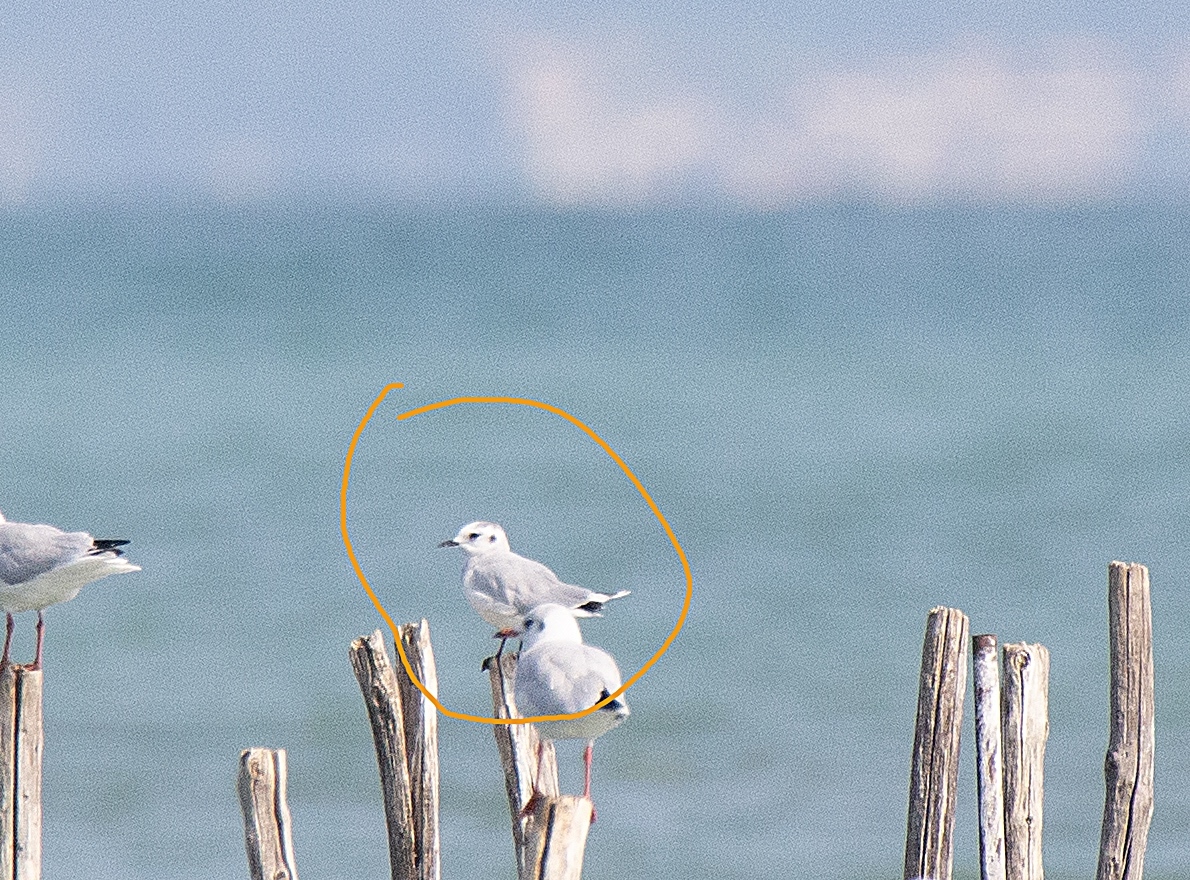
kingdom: Animalia
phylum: Chordata
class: Aves
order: Charadriiformes
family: Laridae
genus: Hydrocoloeus
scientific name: Hydrocoloeus minutus
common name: Little gull
